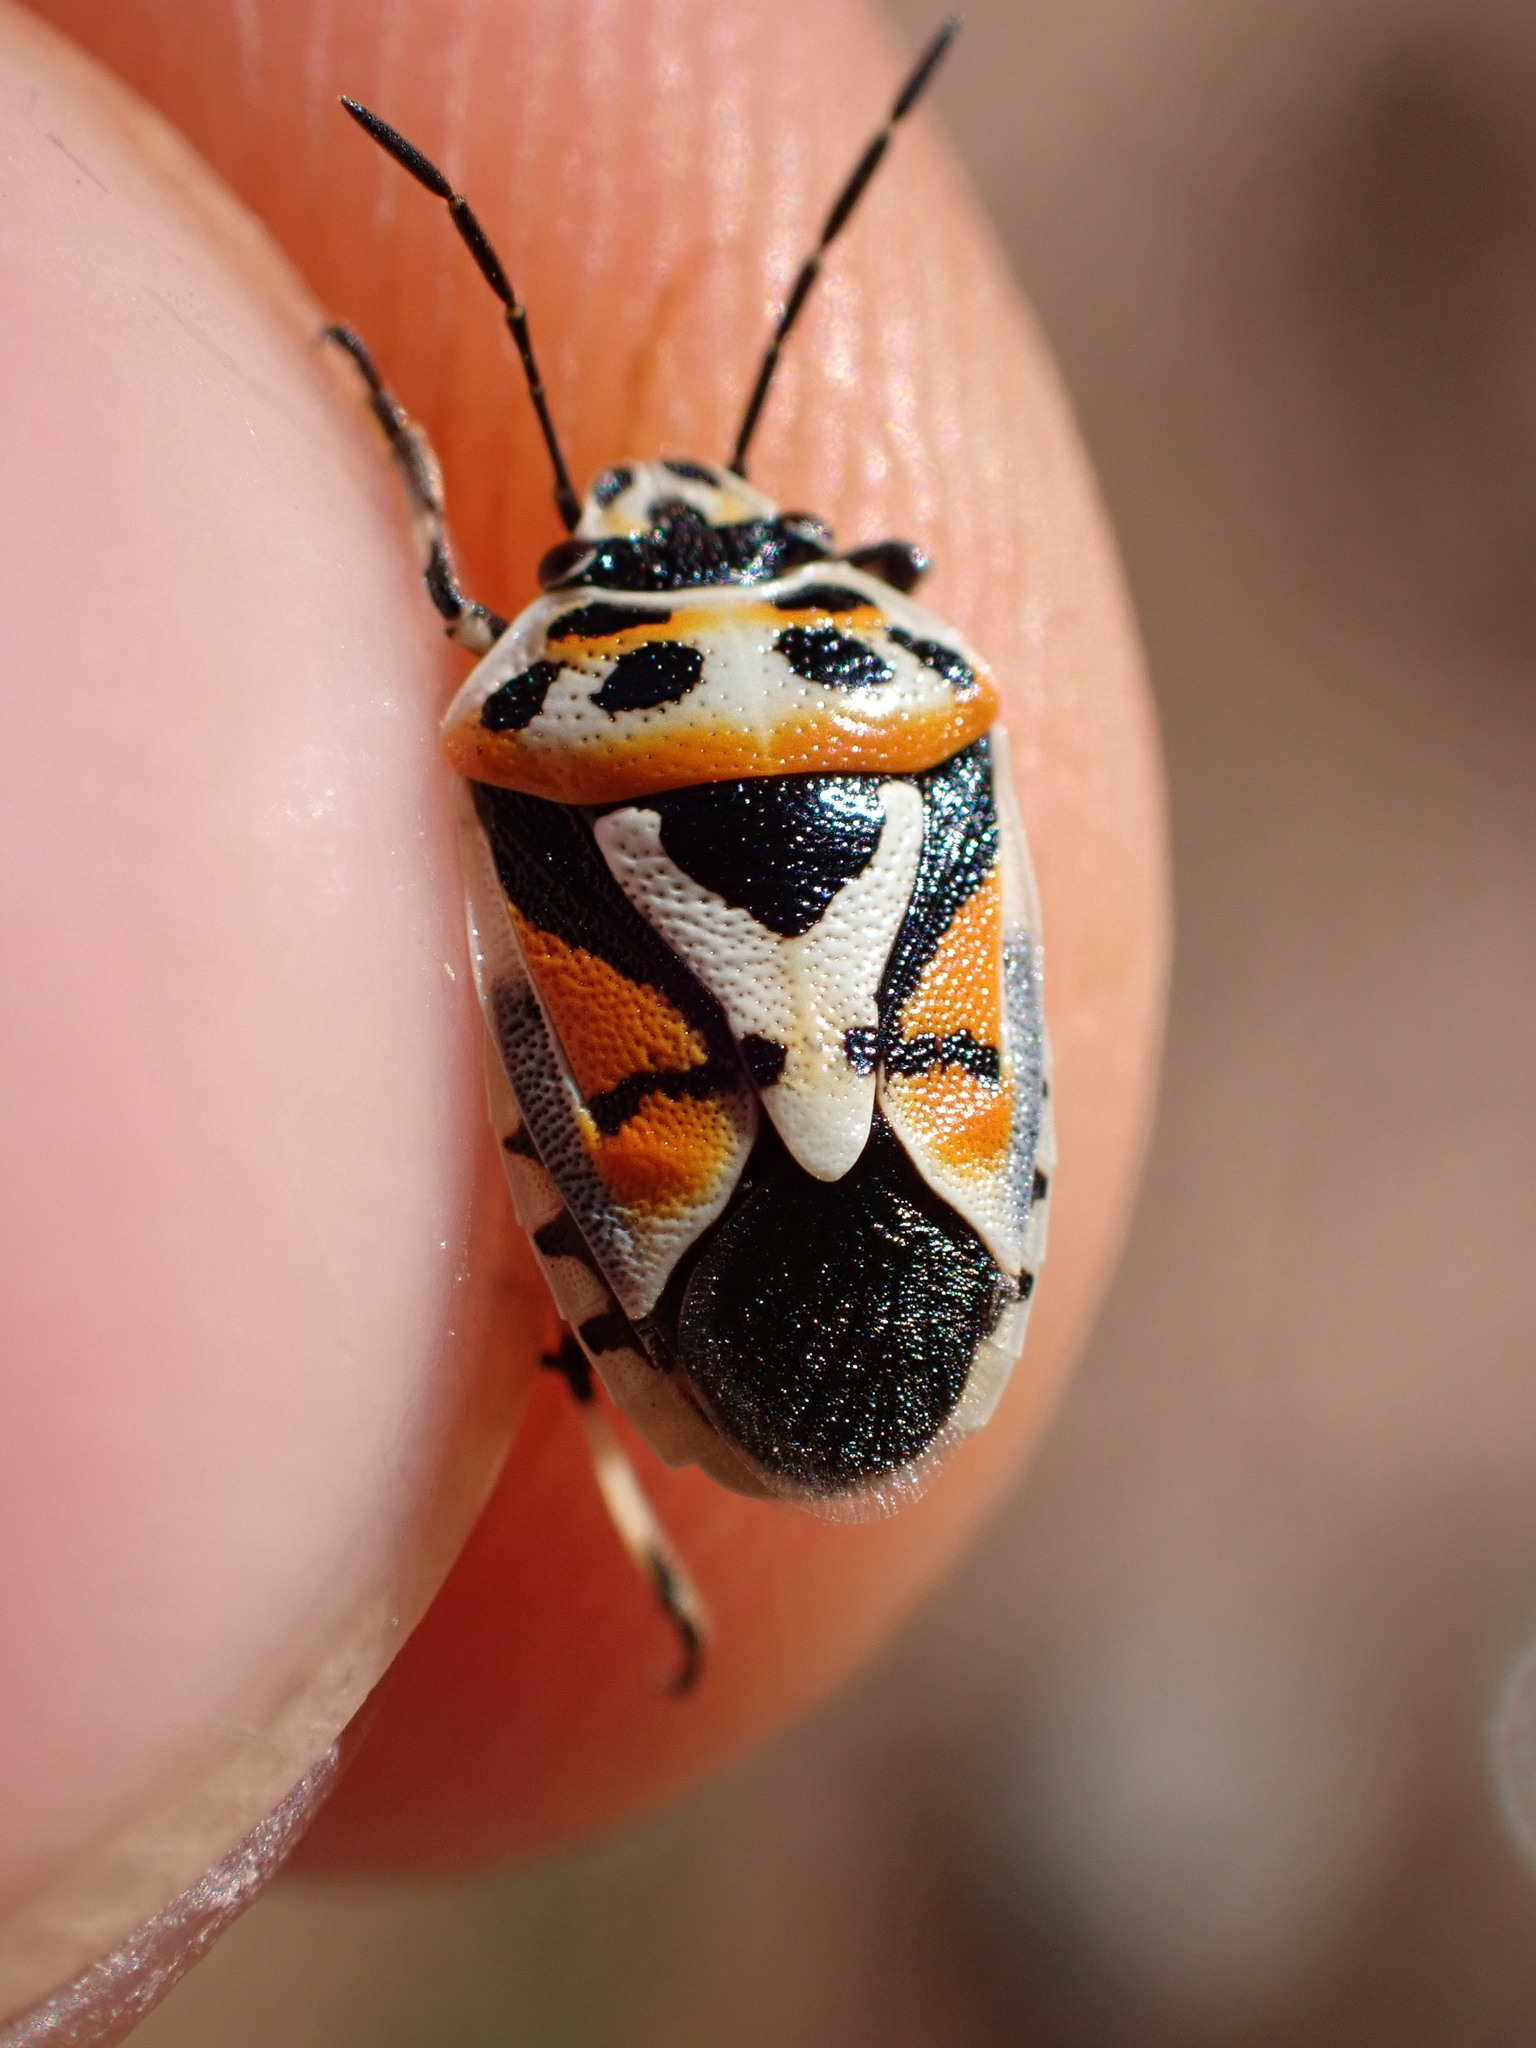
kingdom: Animalia
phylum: Arthropoda
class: Insecta
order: Hemiptera
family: Pentatomidae
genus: Eurydema
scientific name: Eurydema ornata
